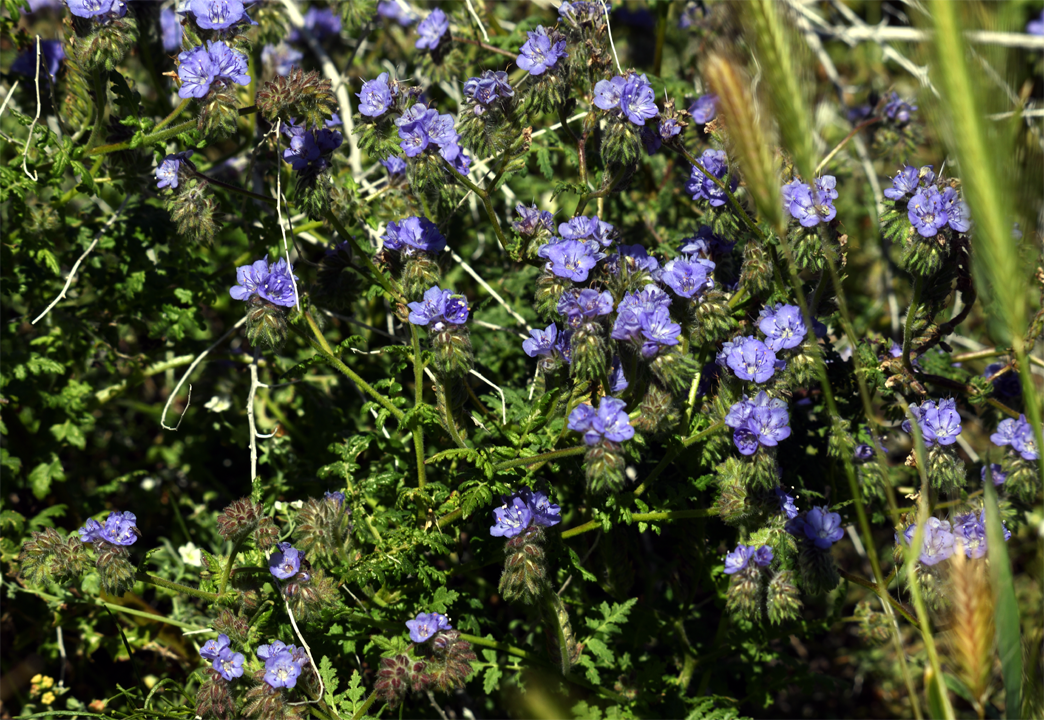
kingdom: Plantae
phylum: Tracheophyta
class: Magnoliopsida
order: Boraginales
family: Hydrophyllaceae
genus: Phacelia
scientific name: Phacelia distans
